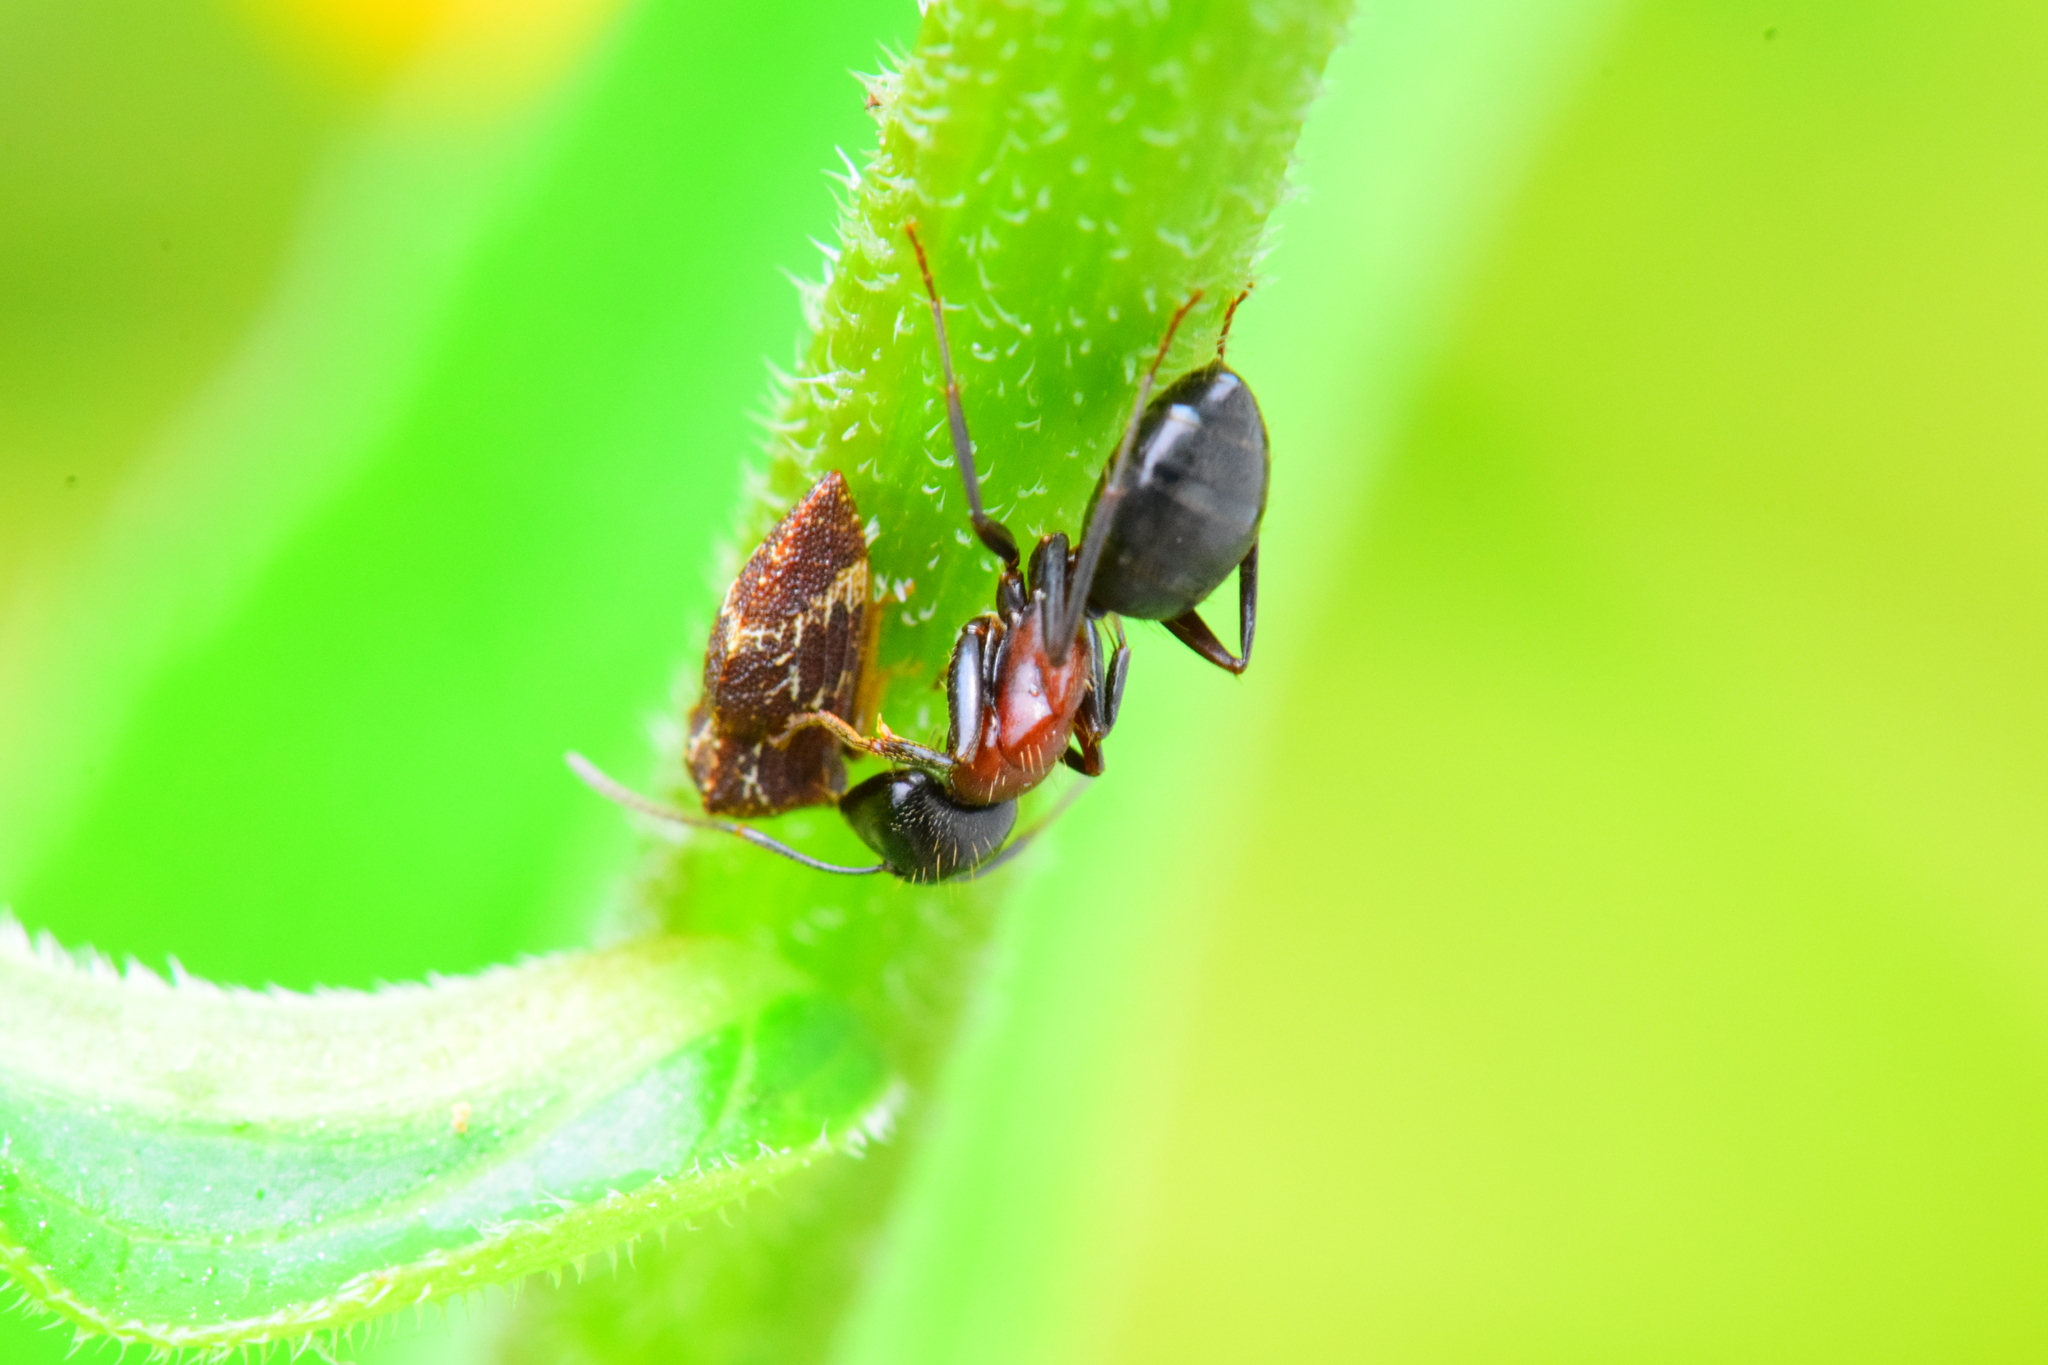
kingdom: Animalia
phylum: Arthropoda
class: Insecta
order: Hymenoptera
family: Formicidae
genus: Camponotus
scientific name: Camponotus novaeboracensis
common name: New york carpenter ant
